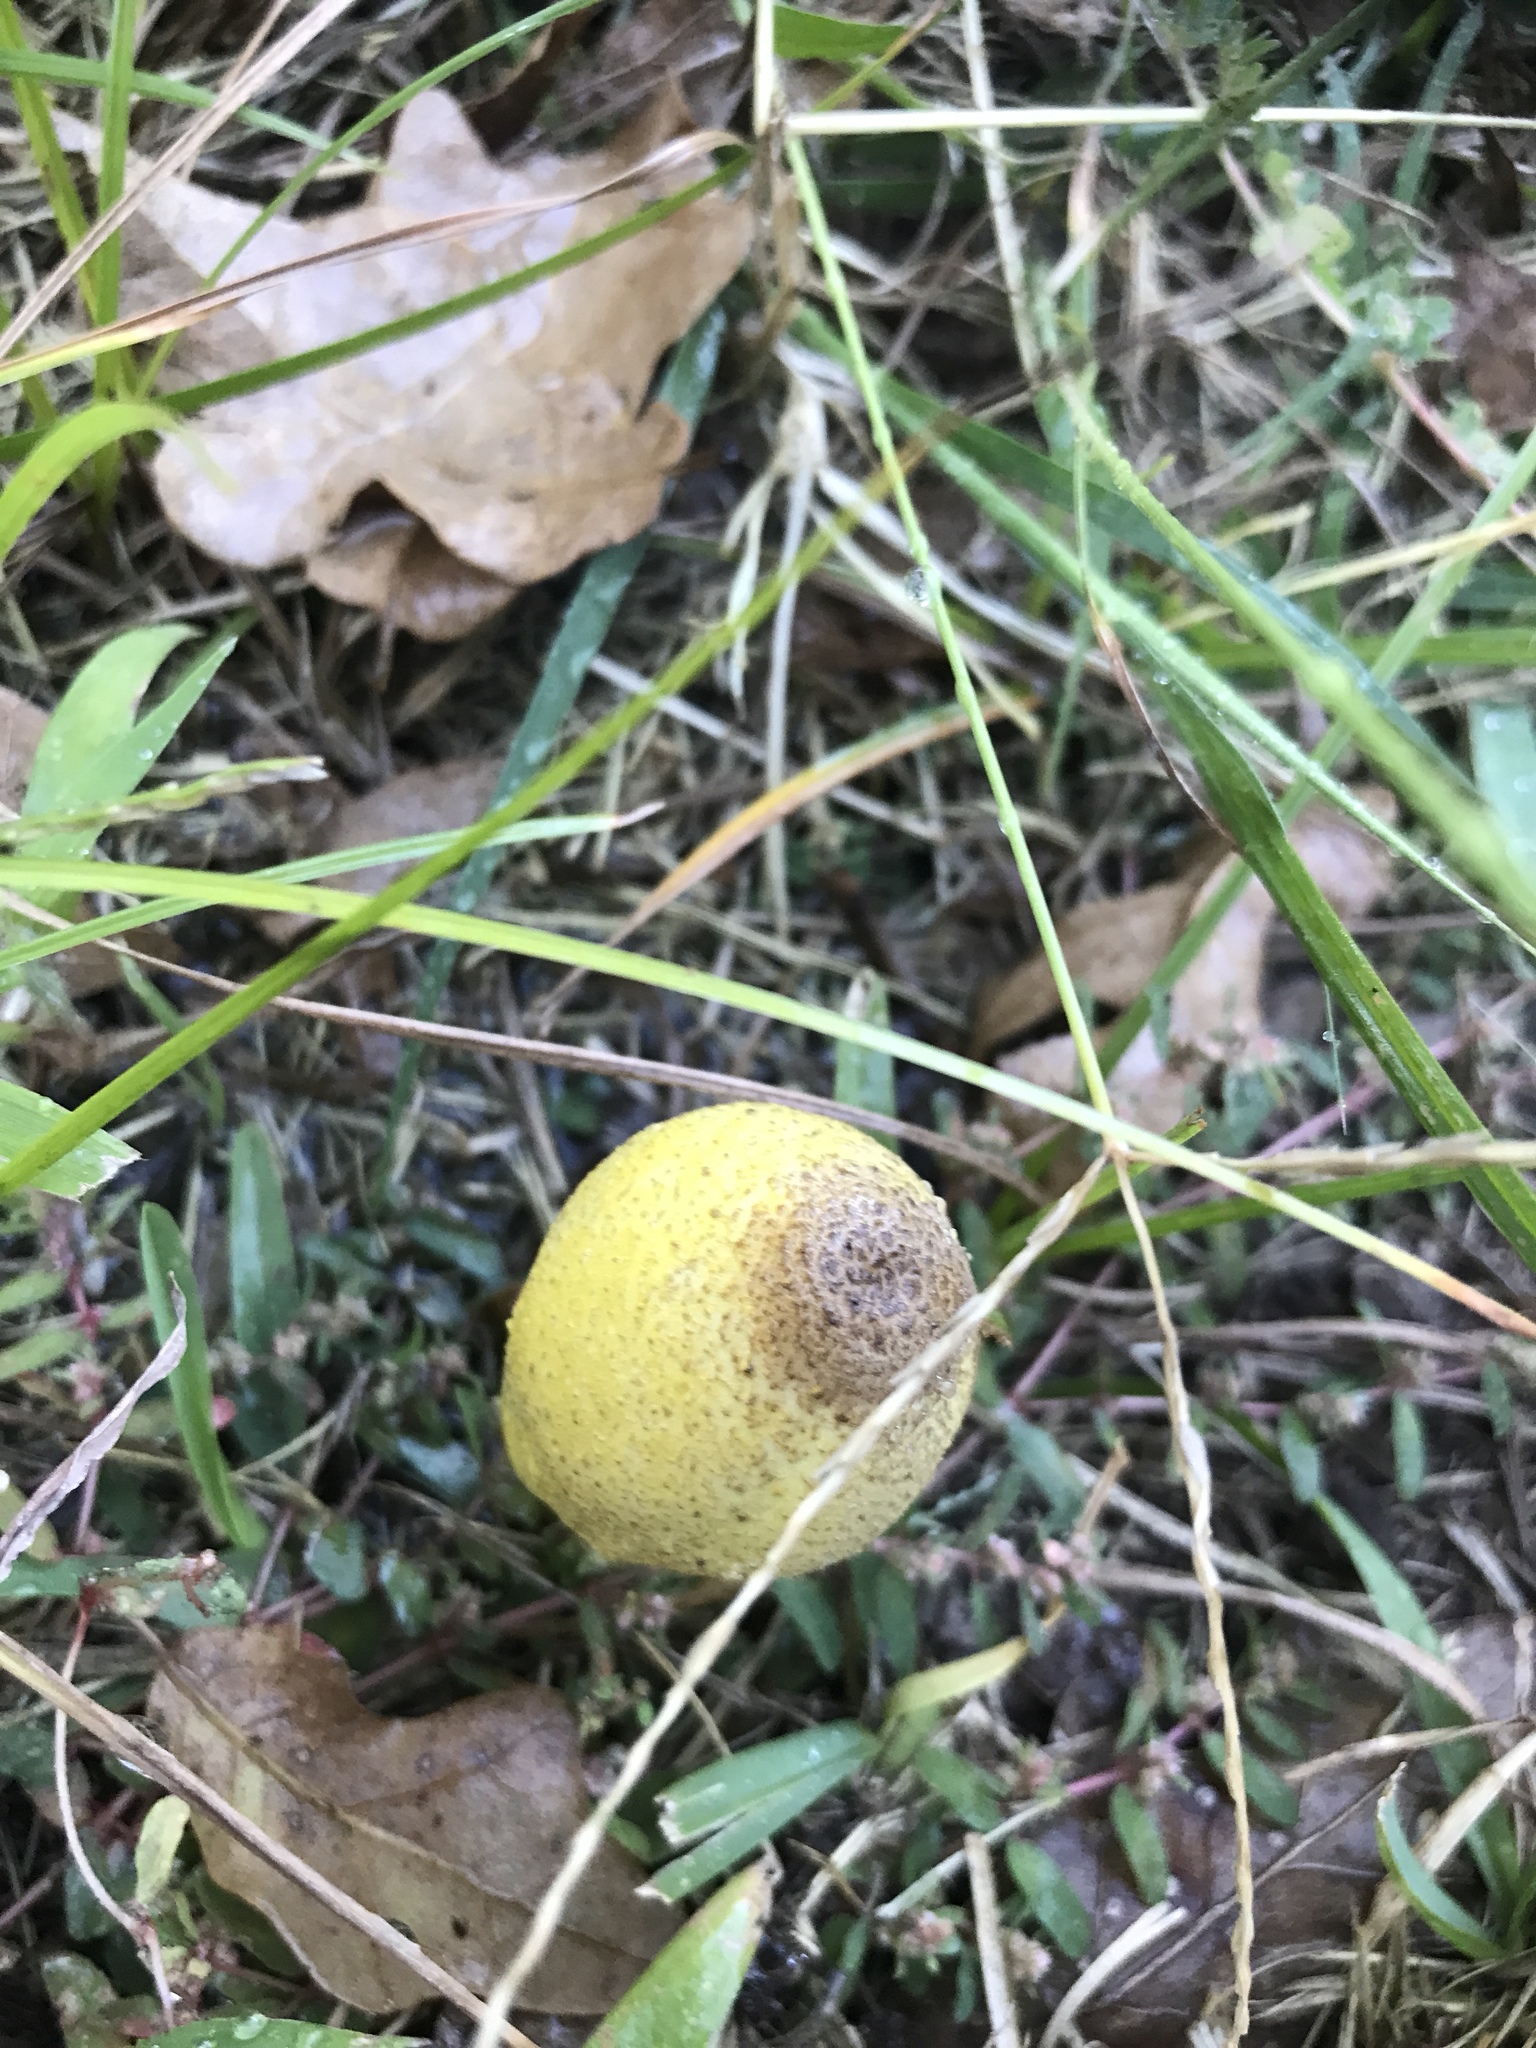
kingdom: Fungi
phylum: Basidiomycota
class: Agaricomycetes
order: Agaricales
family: Agaricaceae
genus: Leucocoprinus
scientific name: Leucocoprinus birnbaumii
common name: Plantpot dapperling
